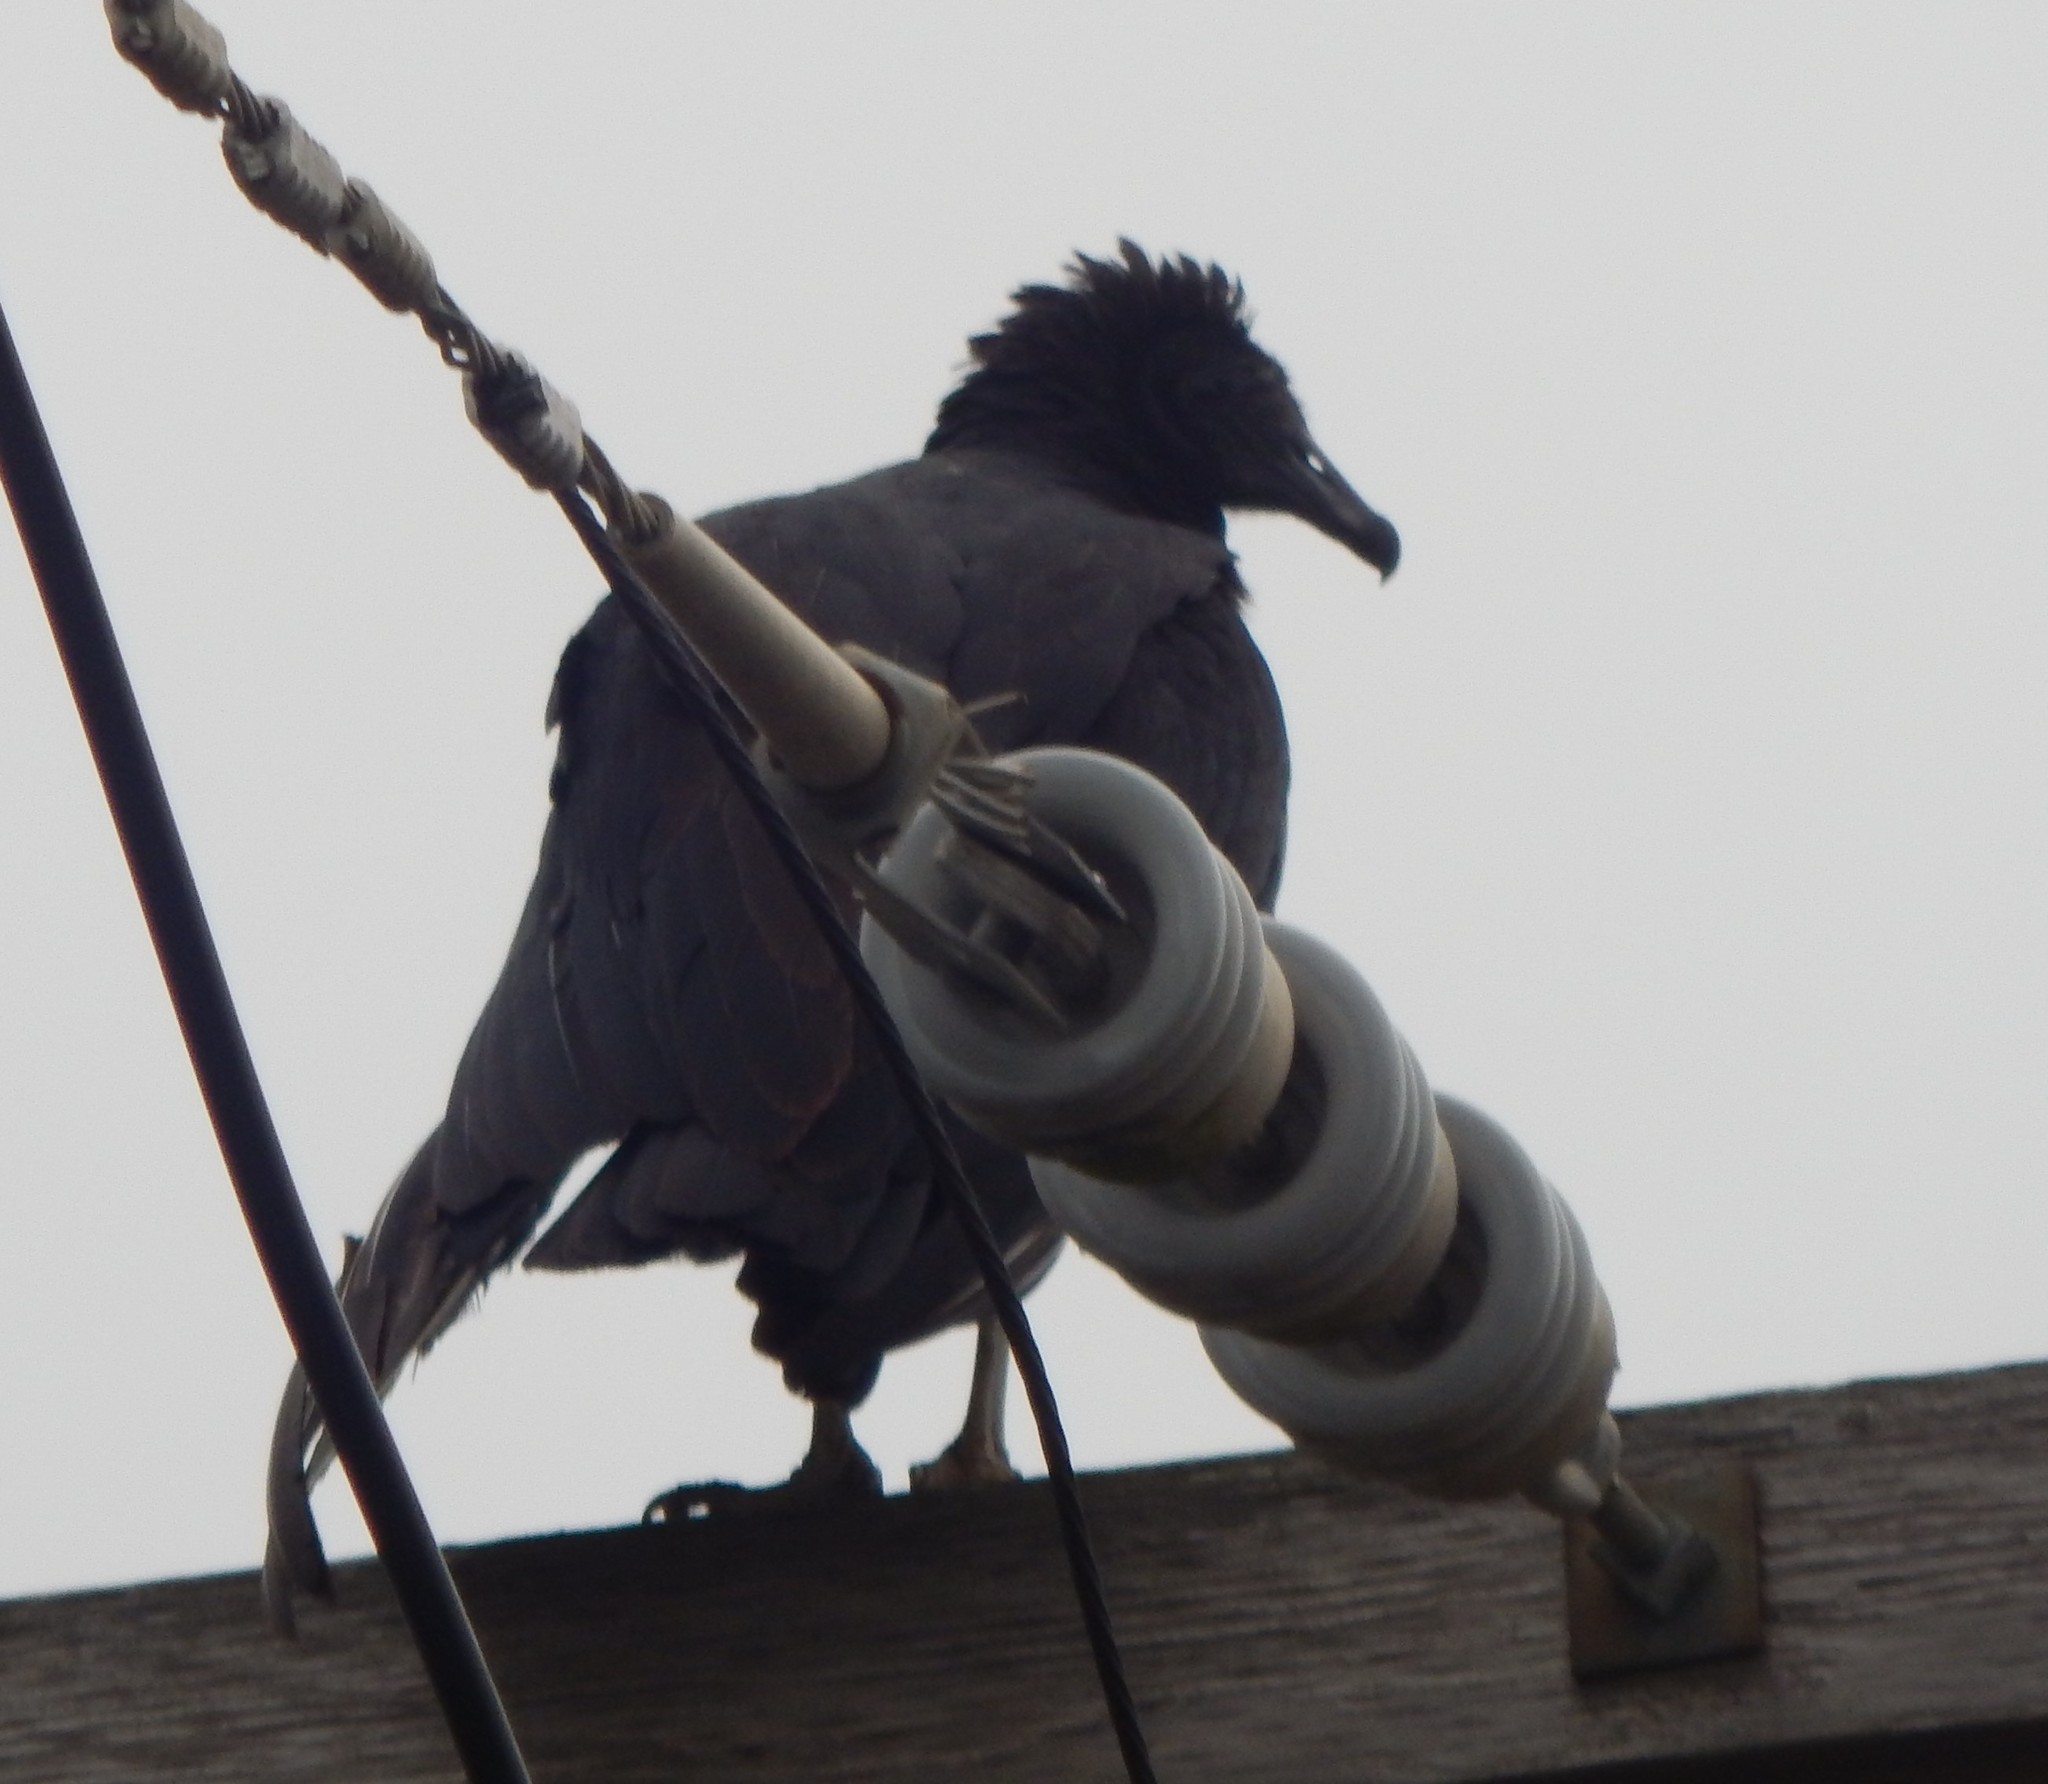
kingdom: Animalia
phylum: Chordata
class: Aves
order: Accipitriformes
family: Cathartidae
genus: Coragyps
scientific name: Coragyps atratus
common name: Black vulture
